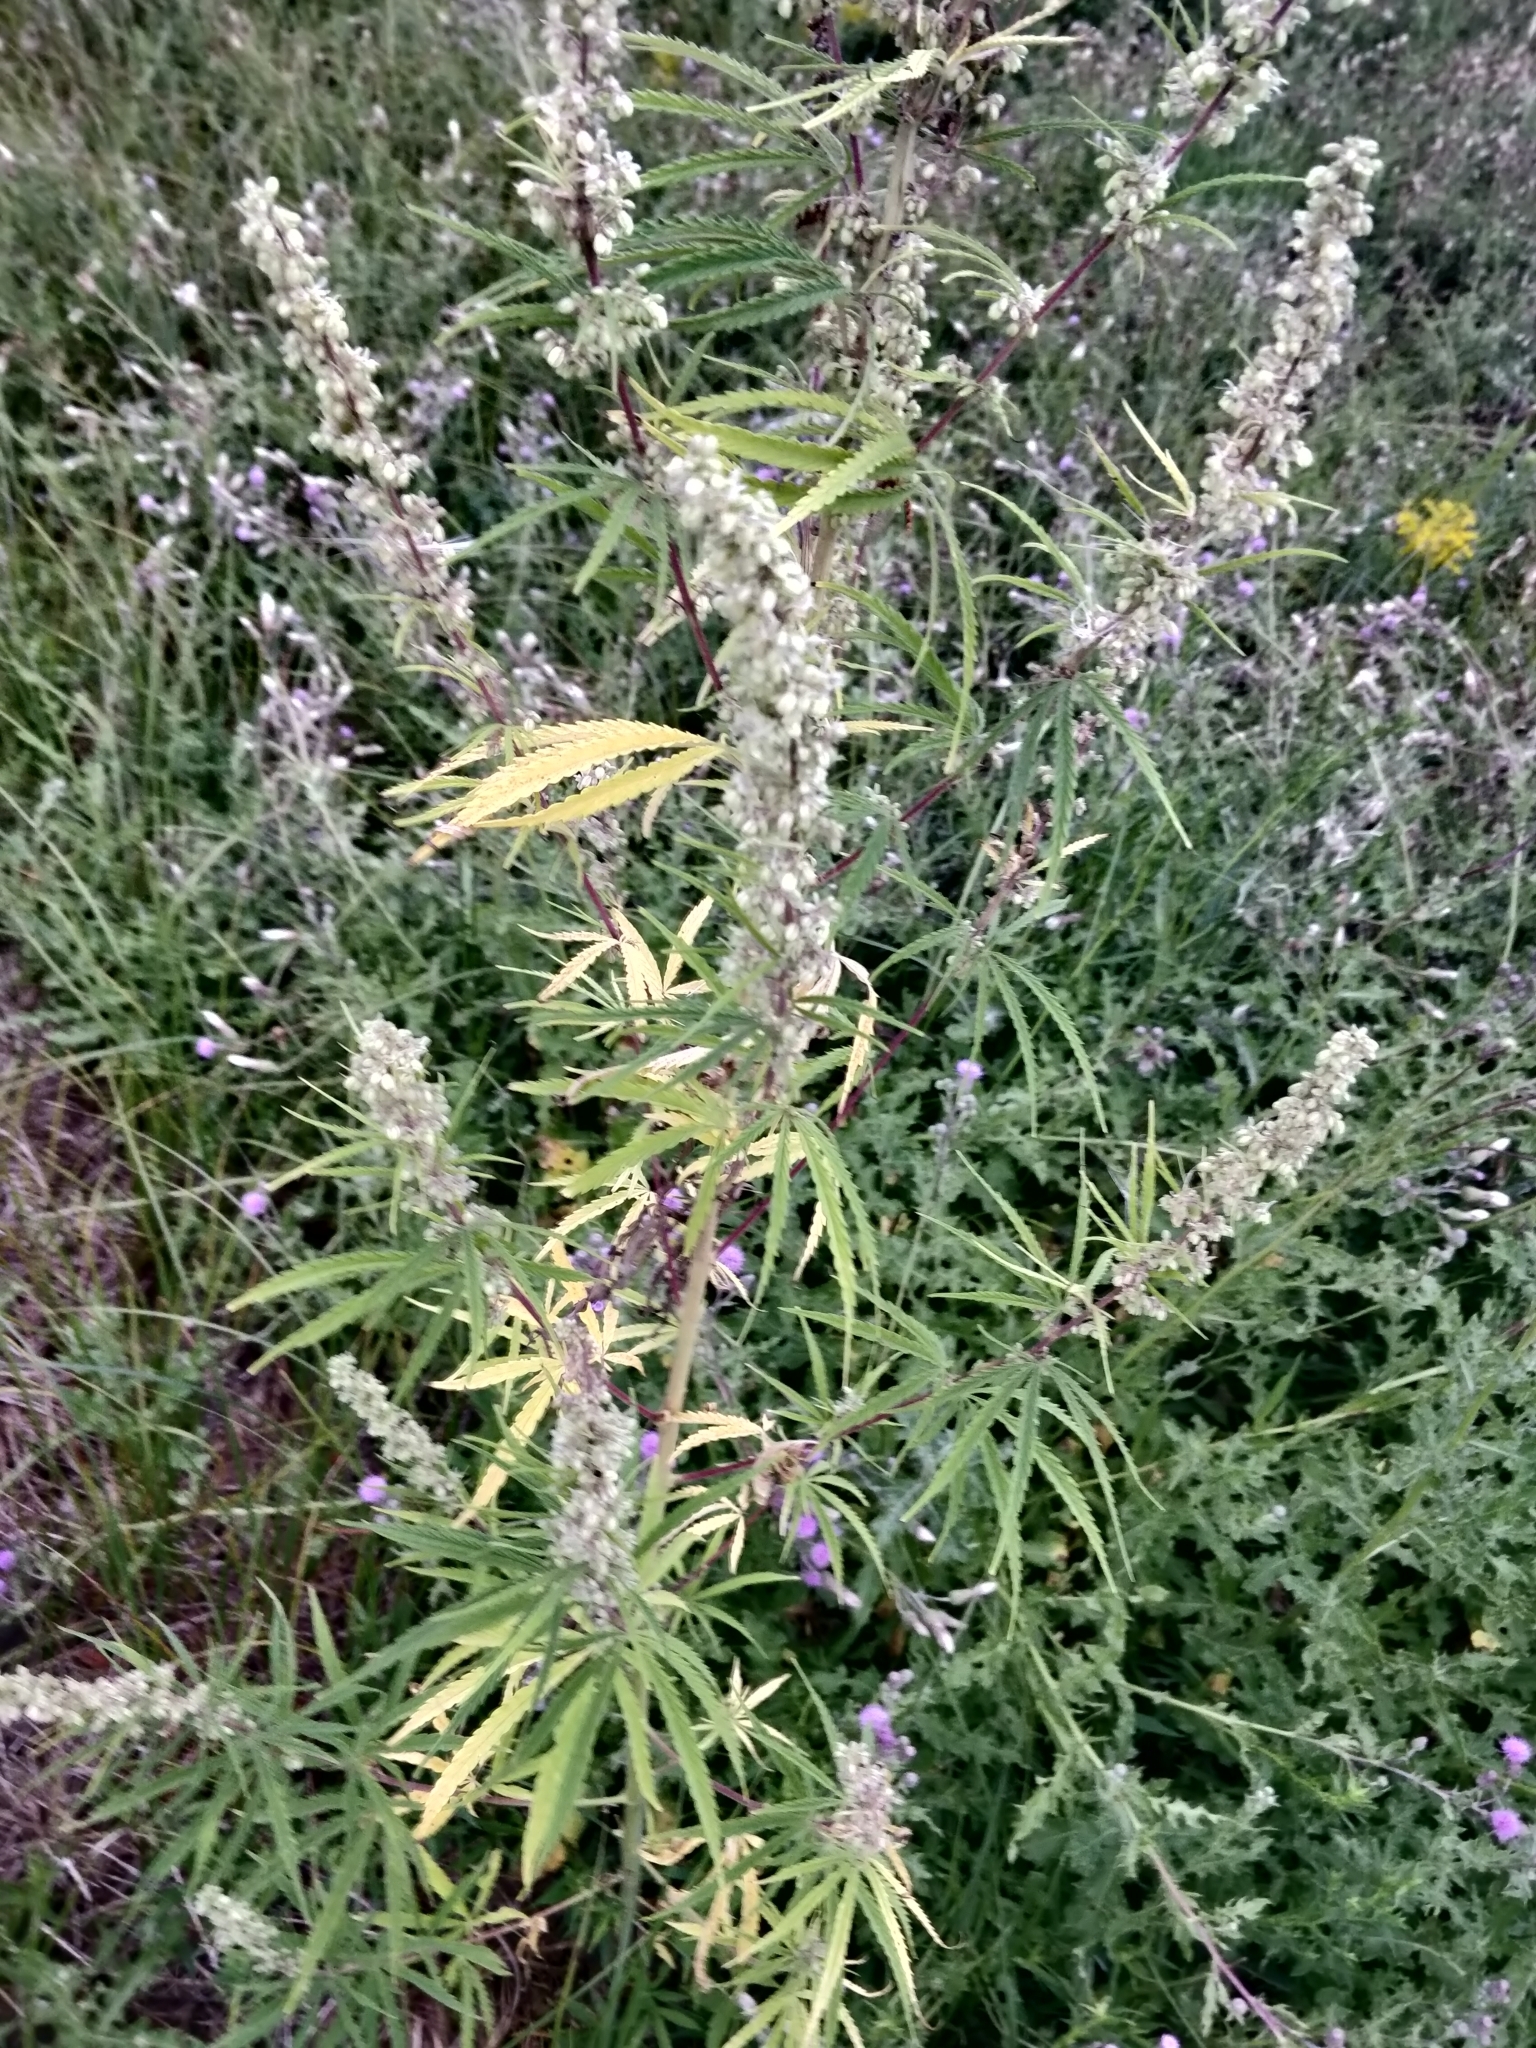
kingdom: Plantae
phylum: Tracheophyta
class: Magnoliopsida
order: Rosales
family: Cannabaceae
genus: Cannabis
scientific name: Cannabis sativa
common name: Hemp
